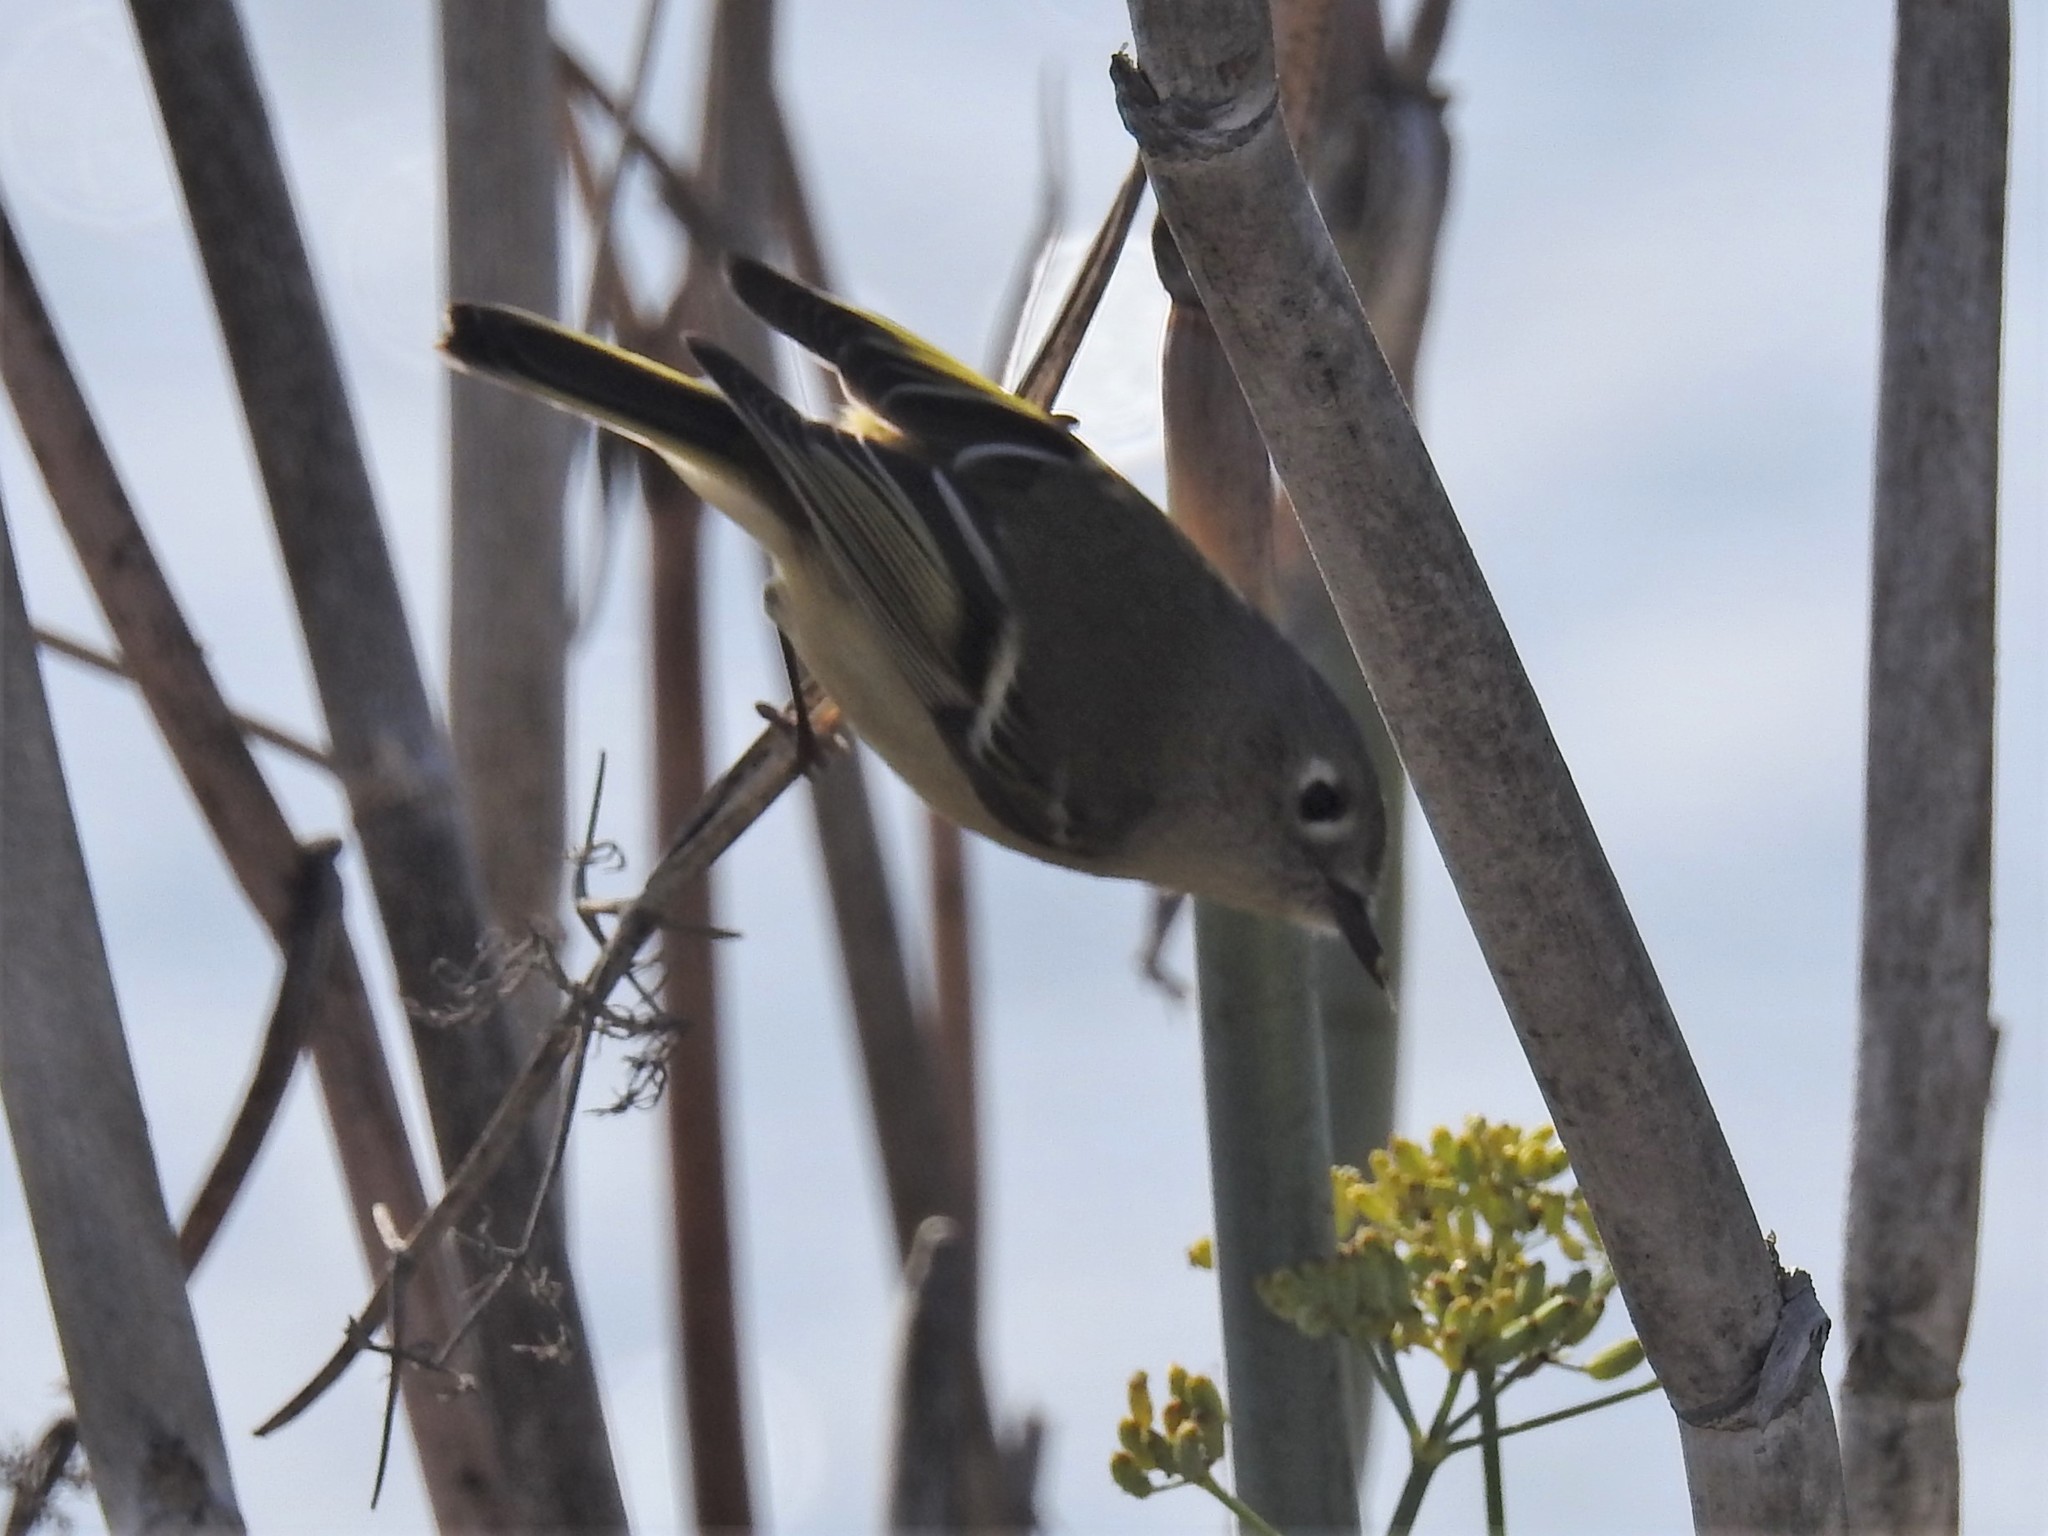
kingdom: Animalia
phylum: Chordata
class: Aves
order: Passeriformes
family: Regulidae
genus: Regulus
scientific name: Regulus calendula
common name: Ruby-crowned kinglet
